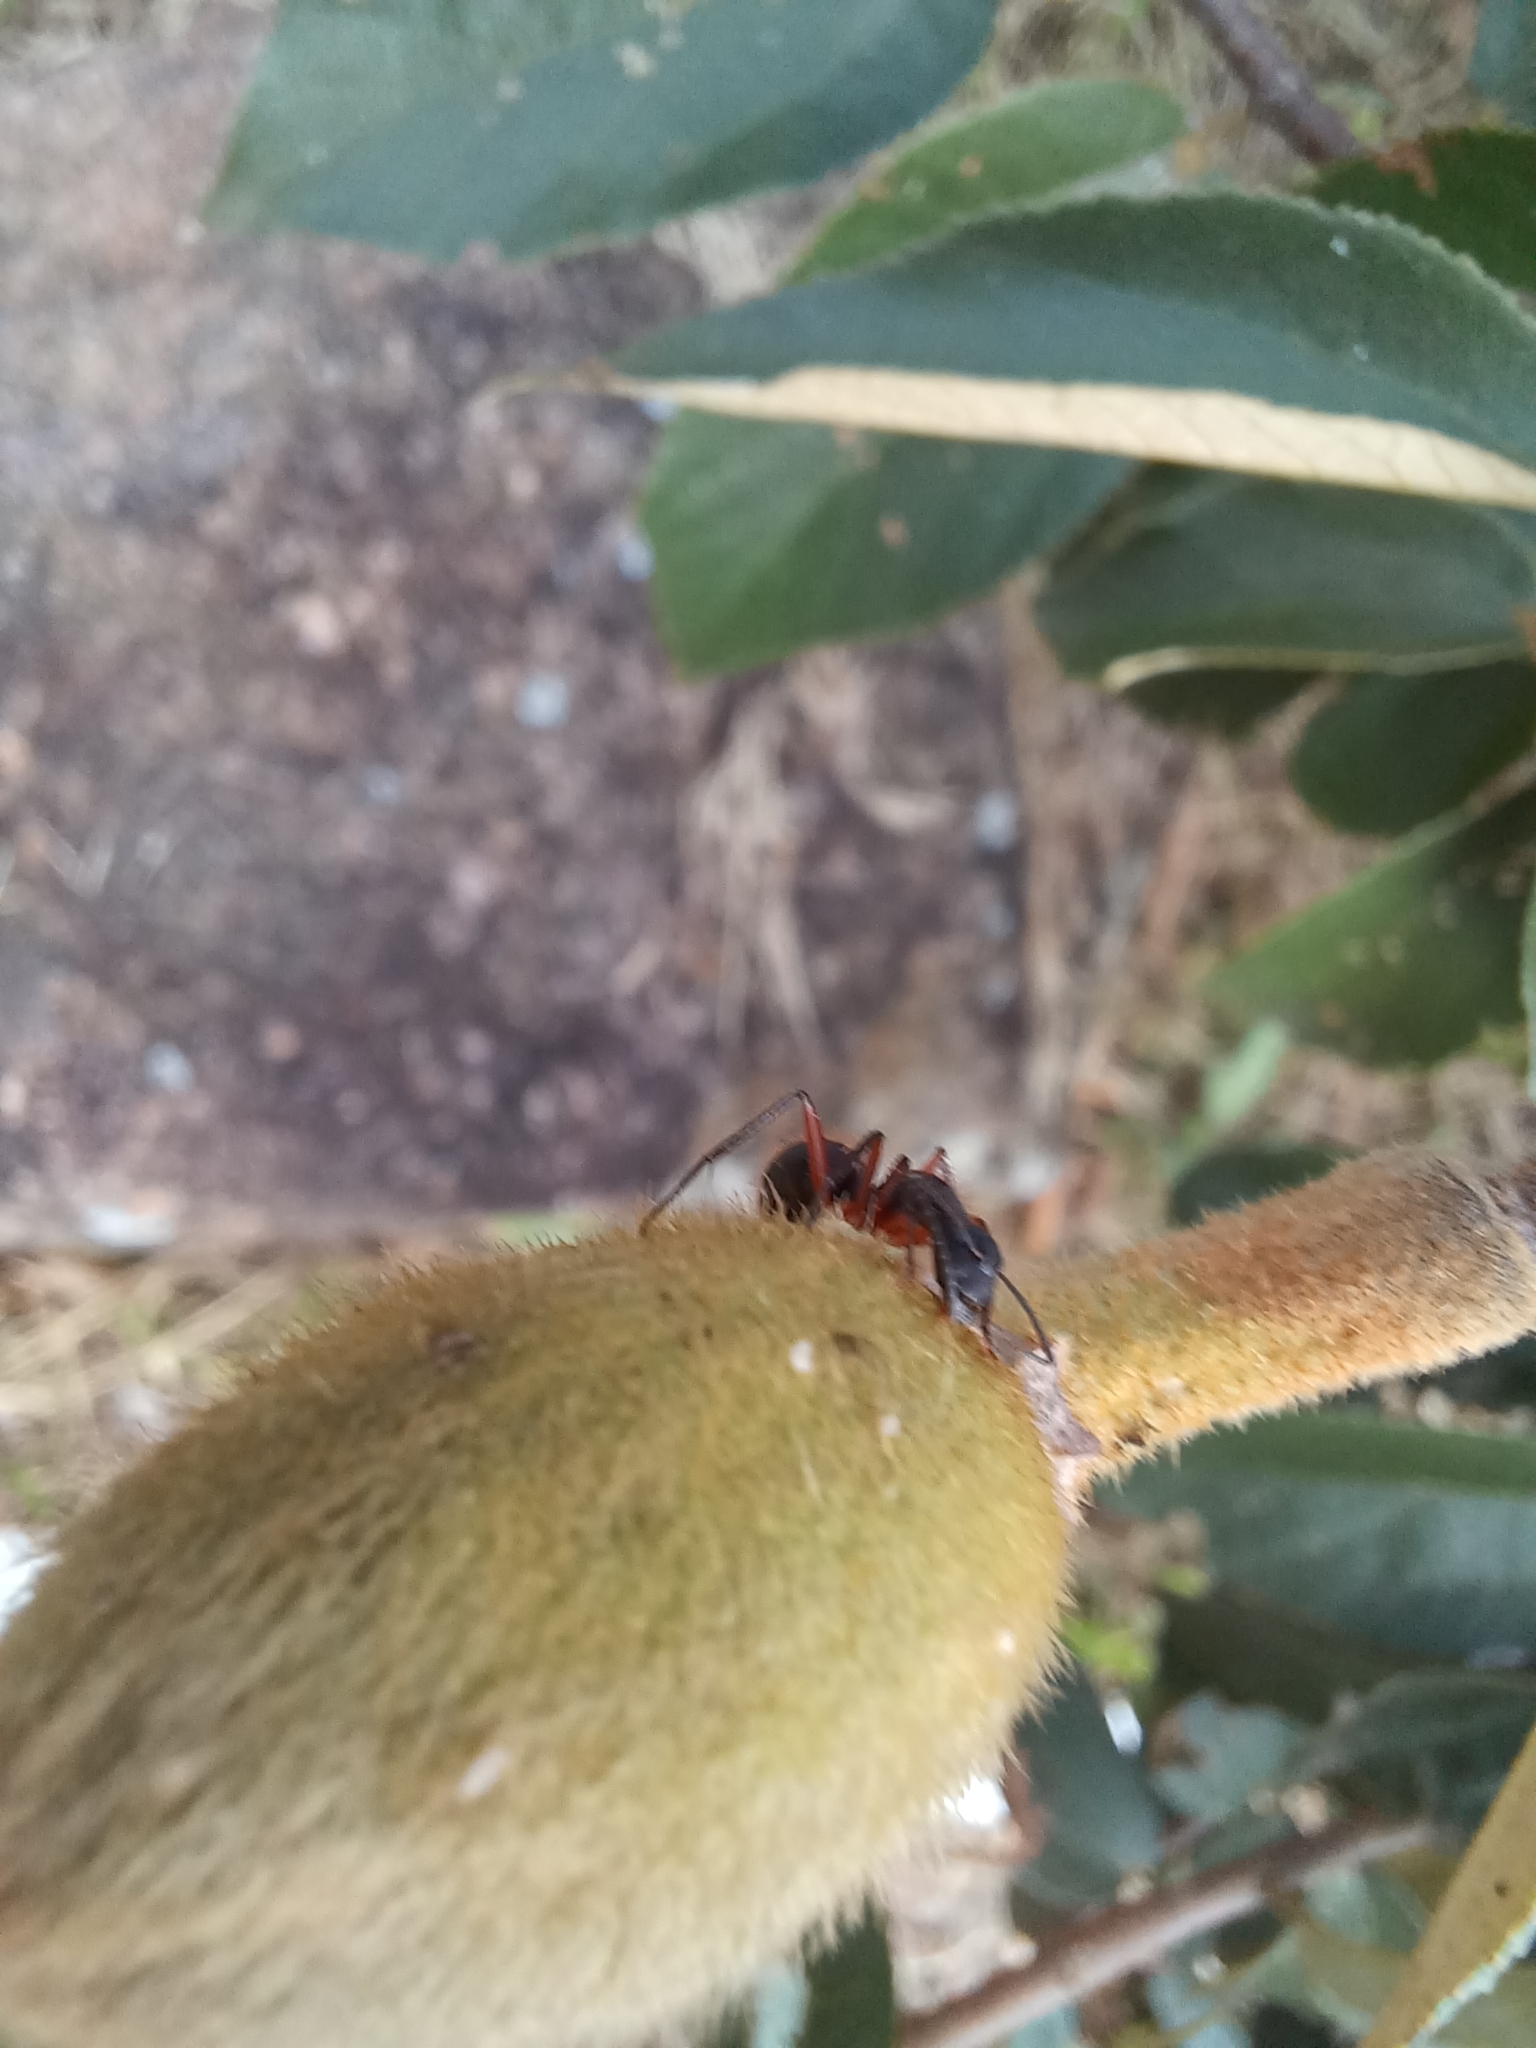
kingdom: Animalia
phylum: Arthropoda
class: Insecta
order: Hymenoptera
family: Formicidae
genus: Camponotus
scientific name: Camponotus rufipes
